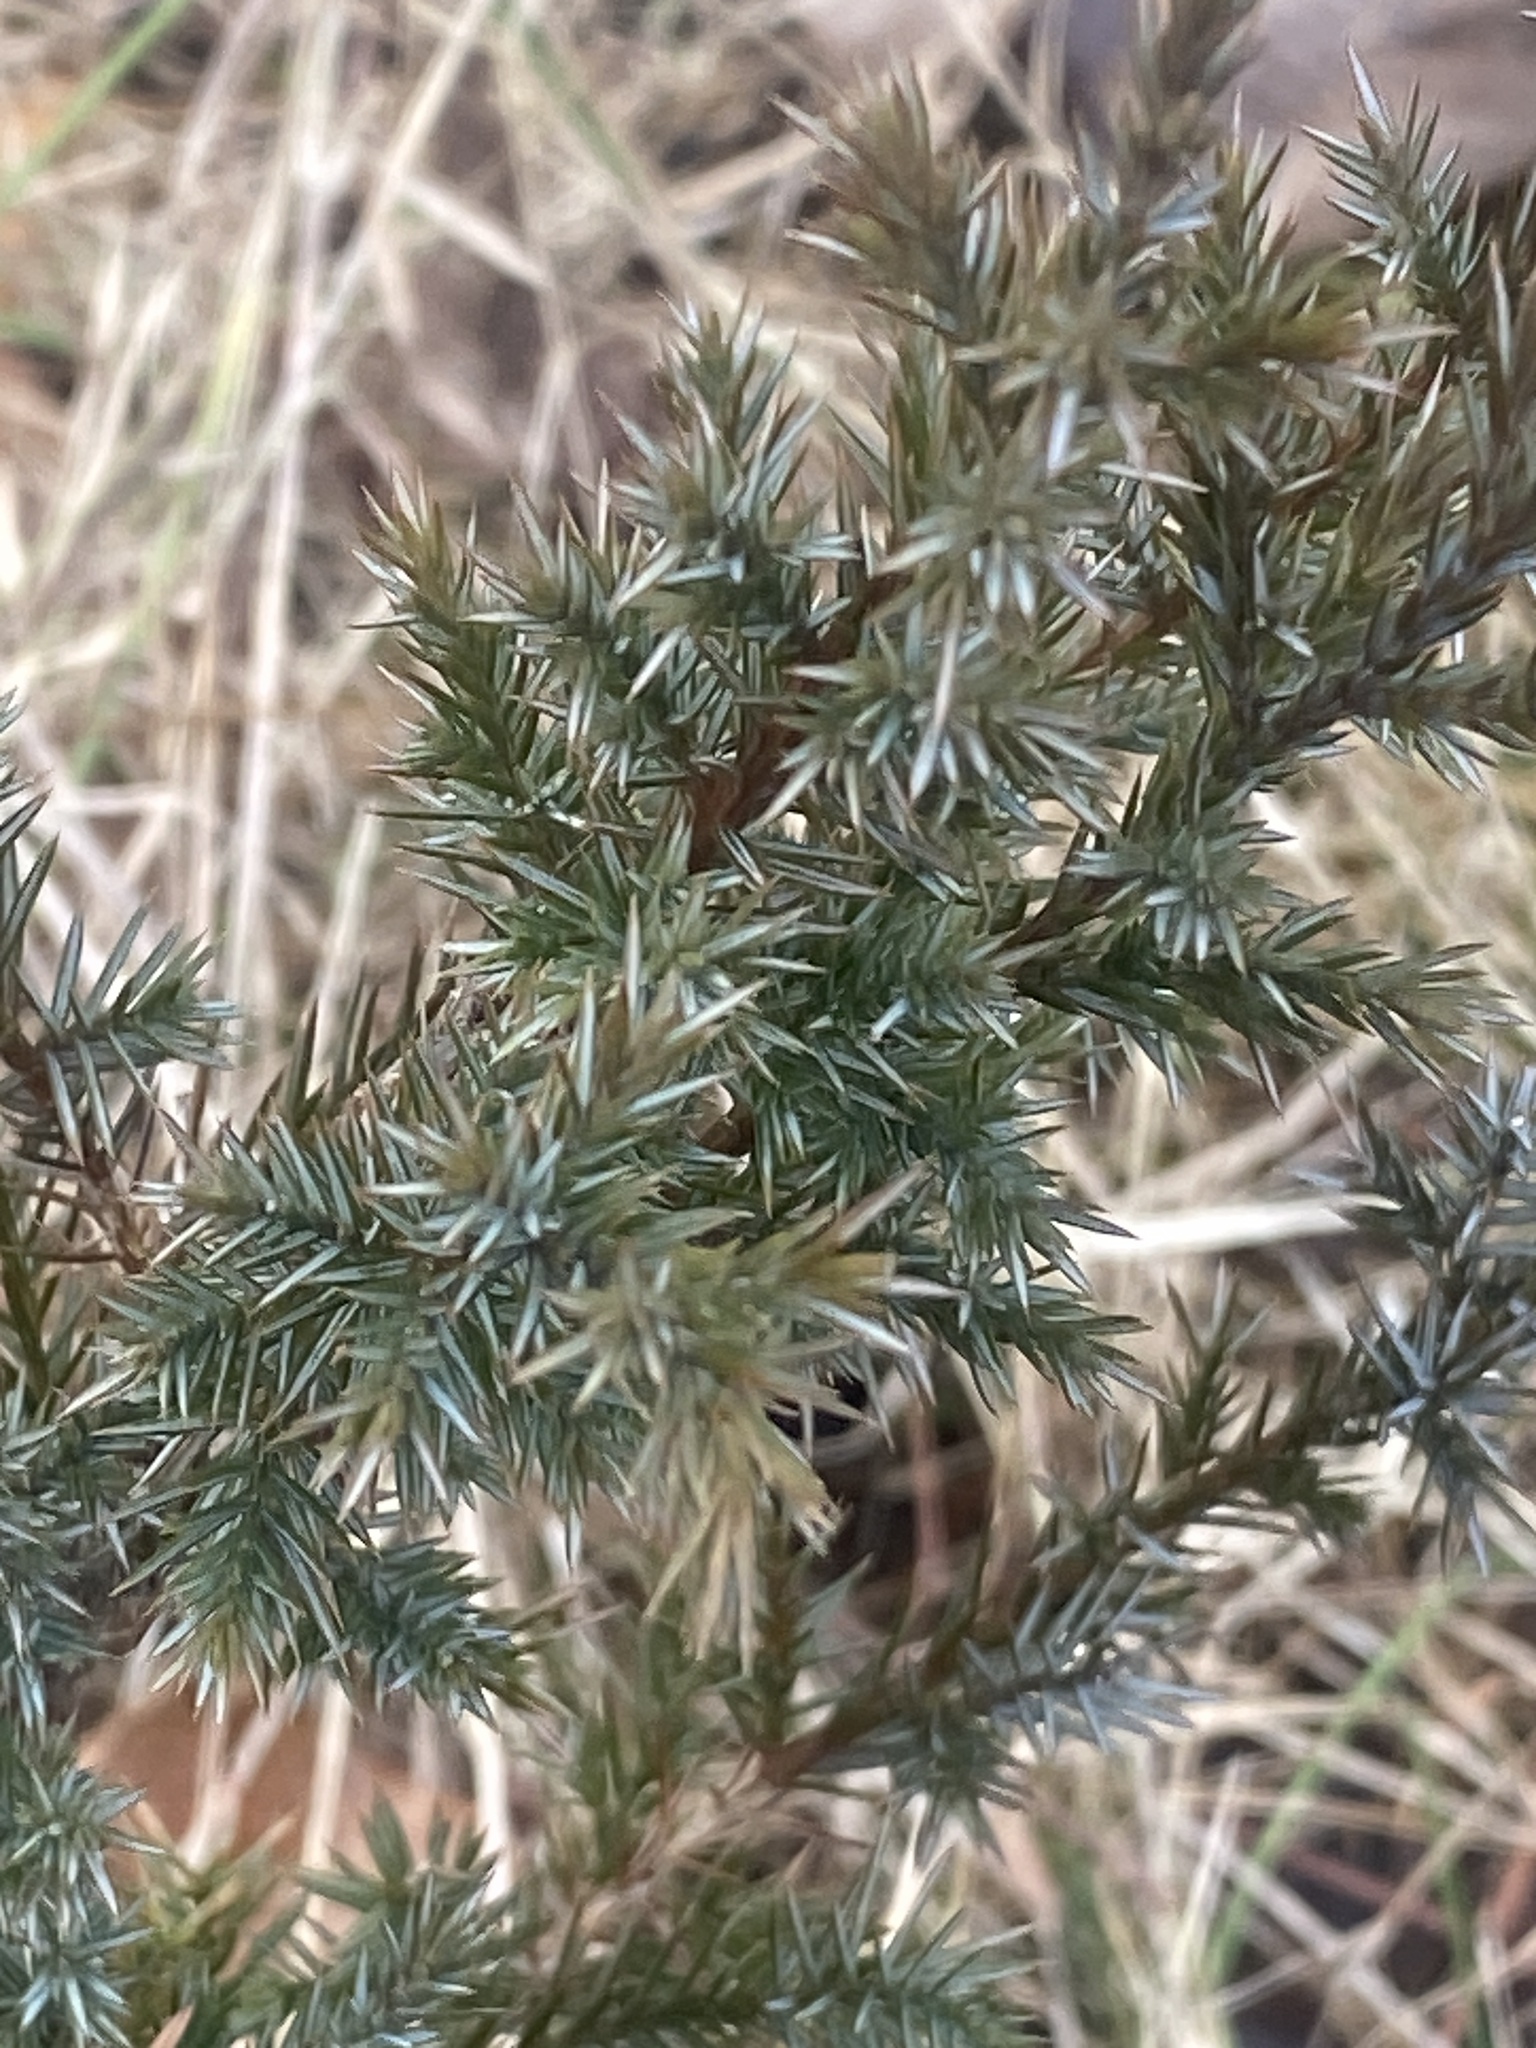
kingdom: Plantae
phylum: Tracheophyta
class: Pinopsida
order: Pinales
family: Cupressaceae
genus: Juniperus
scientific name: Juniperus virginiana
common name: Red juniper
